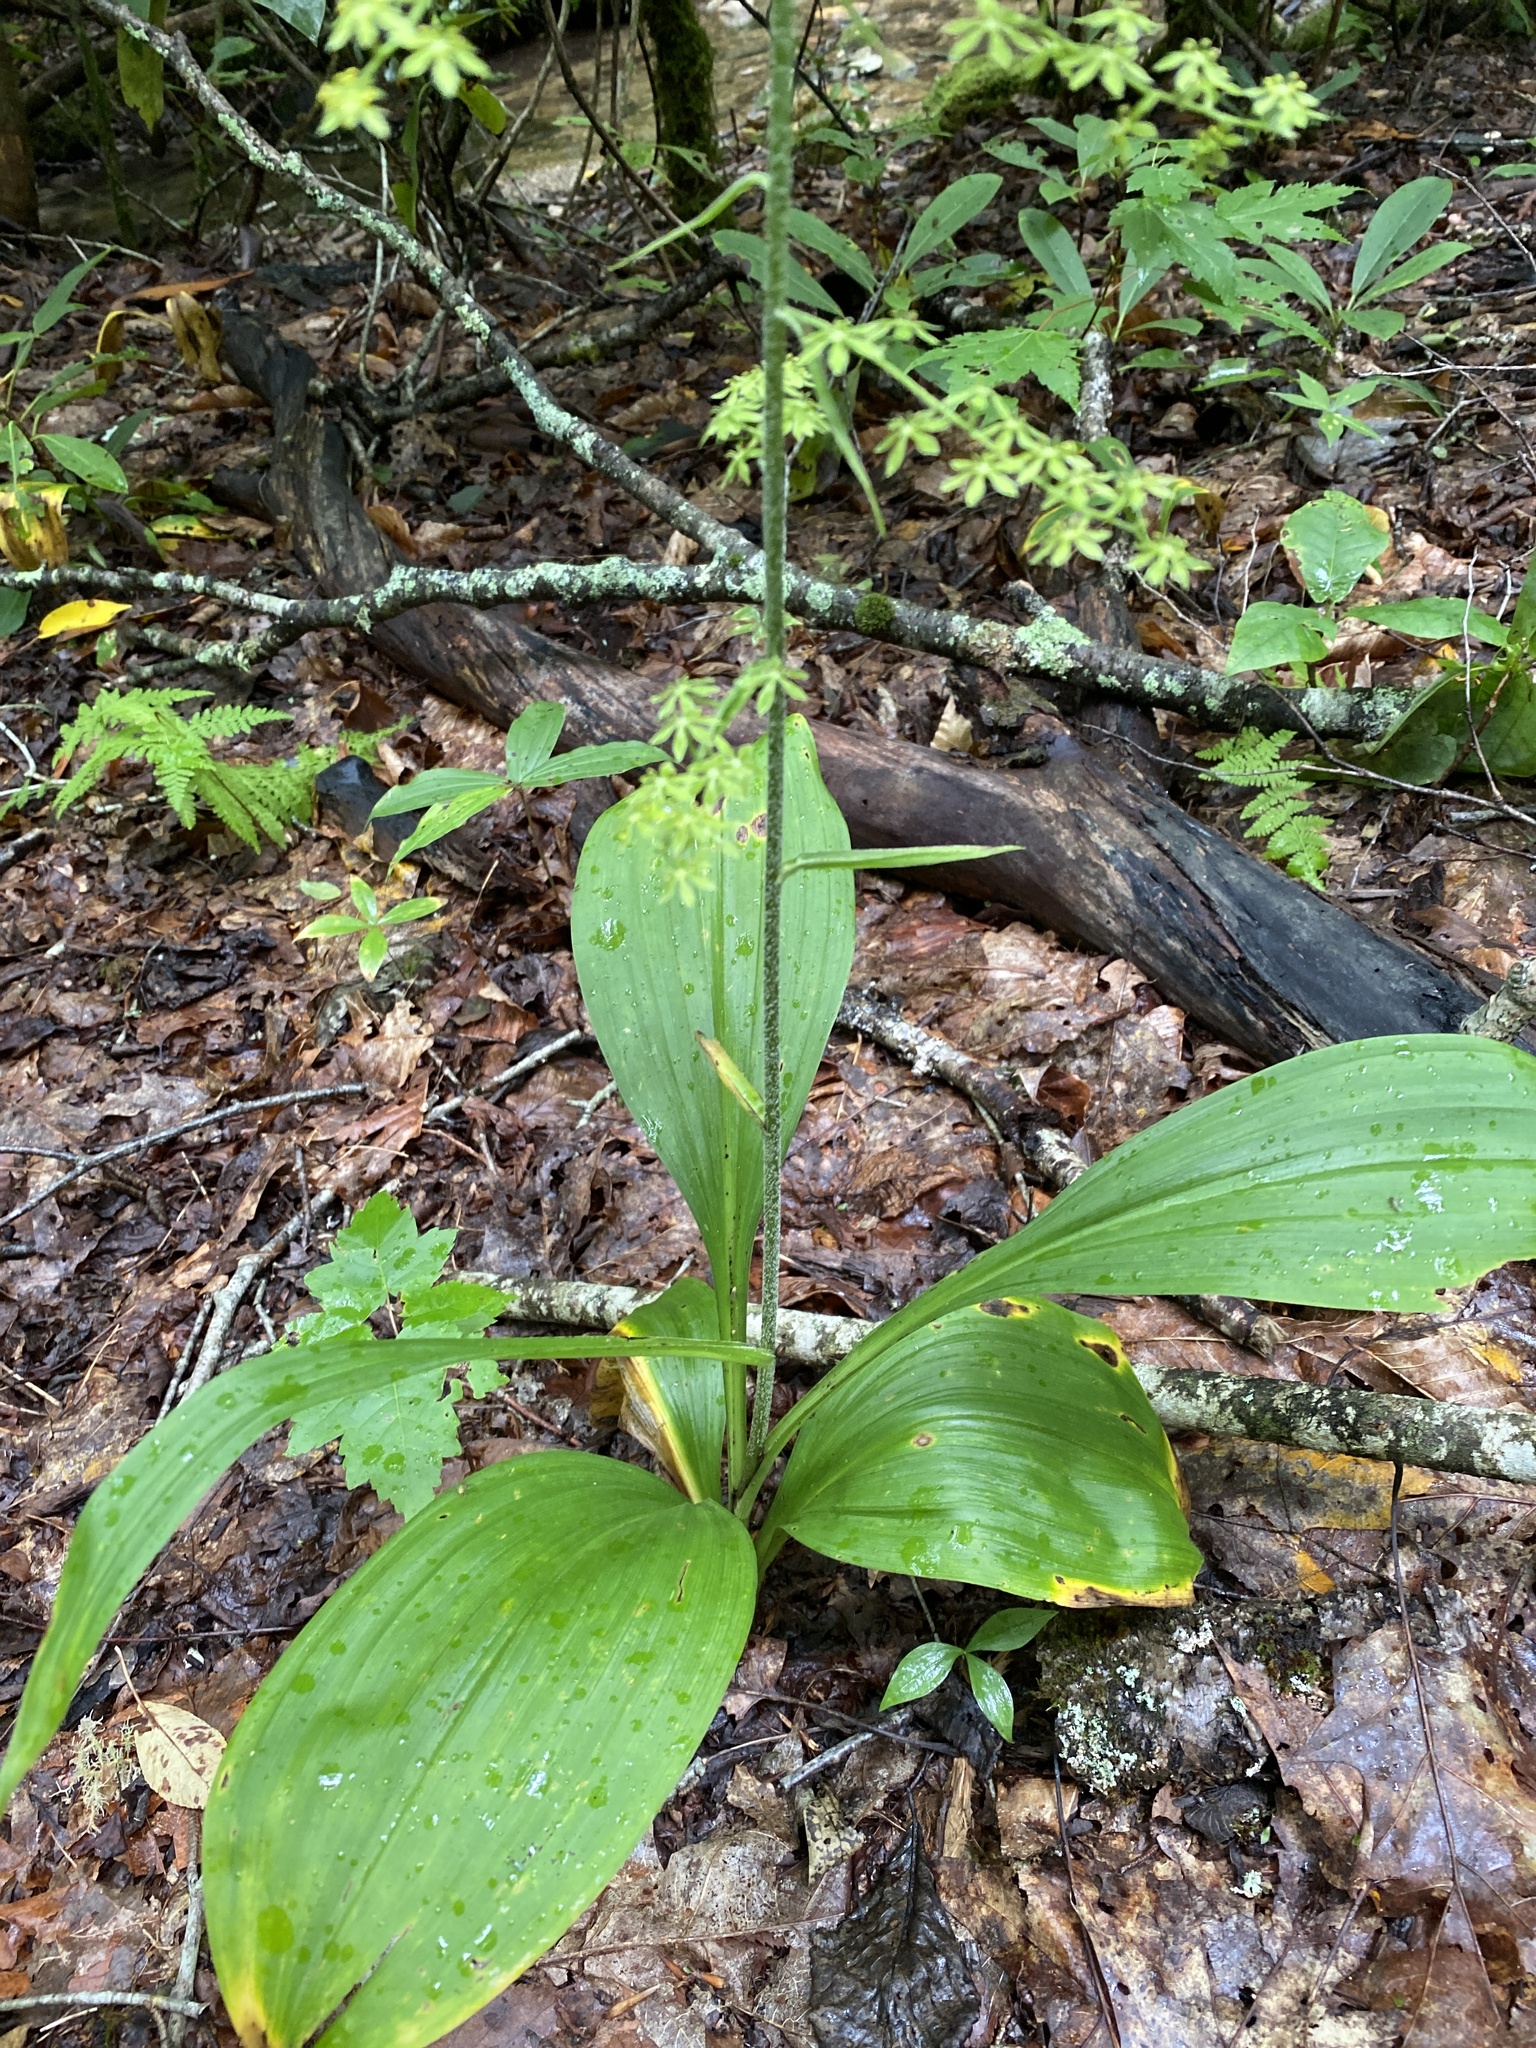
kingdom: Plantae
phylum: Tracheophyta
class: Liliopsida
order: Liliales
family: Melanthiaceae
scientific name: Melanthiaceae
